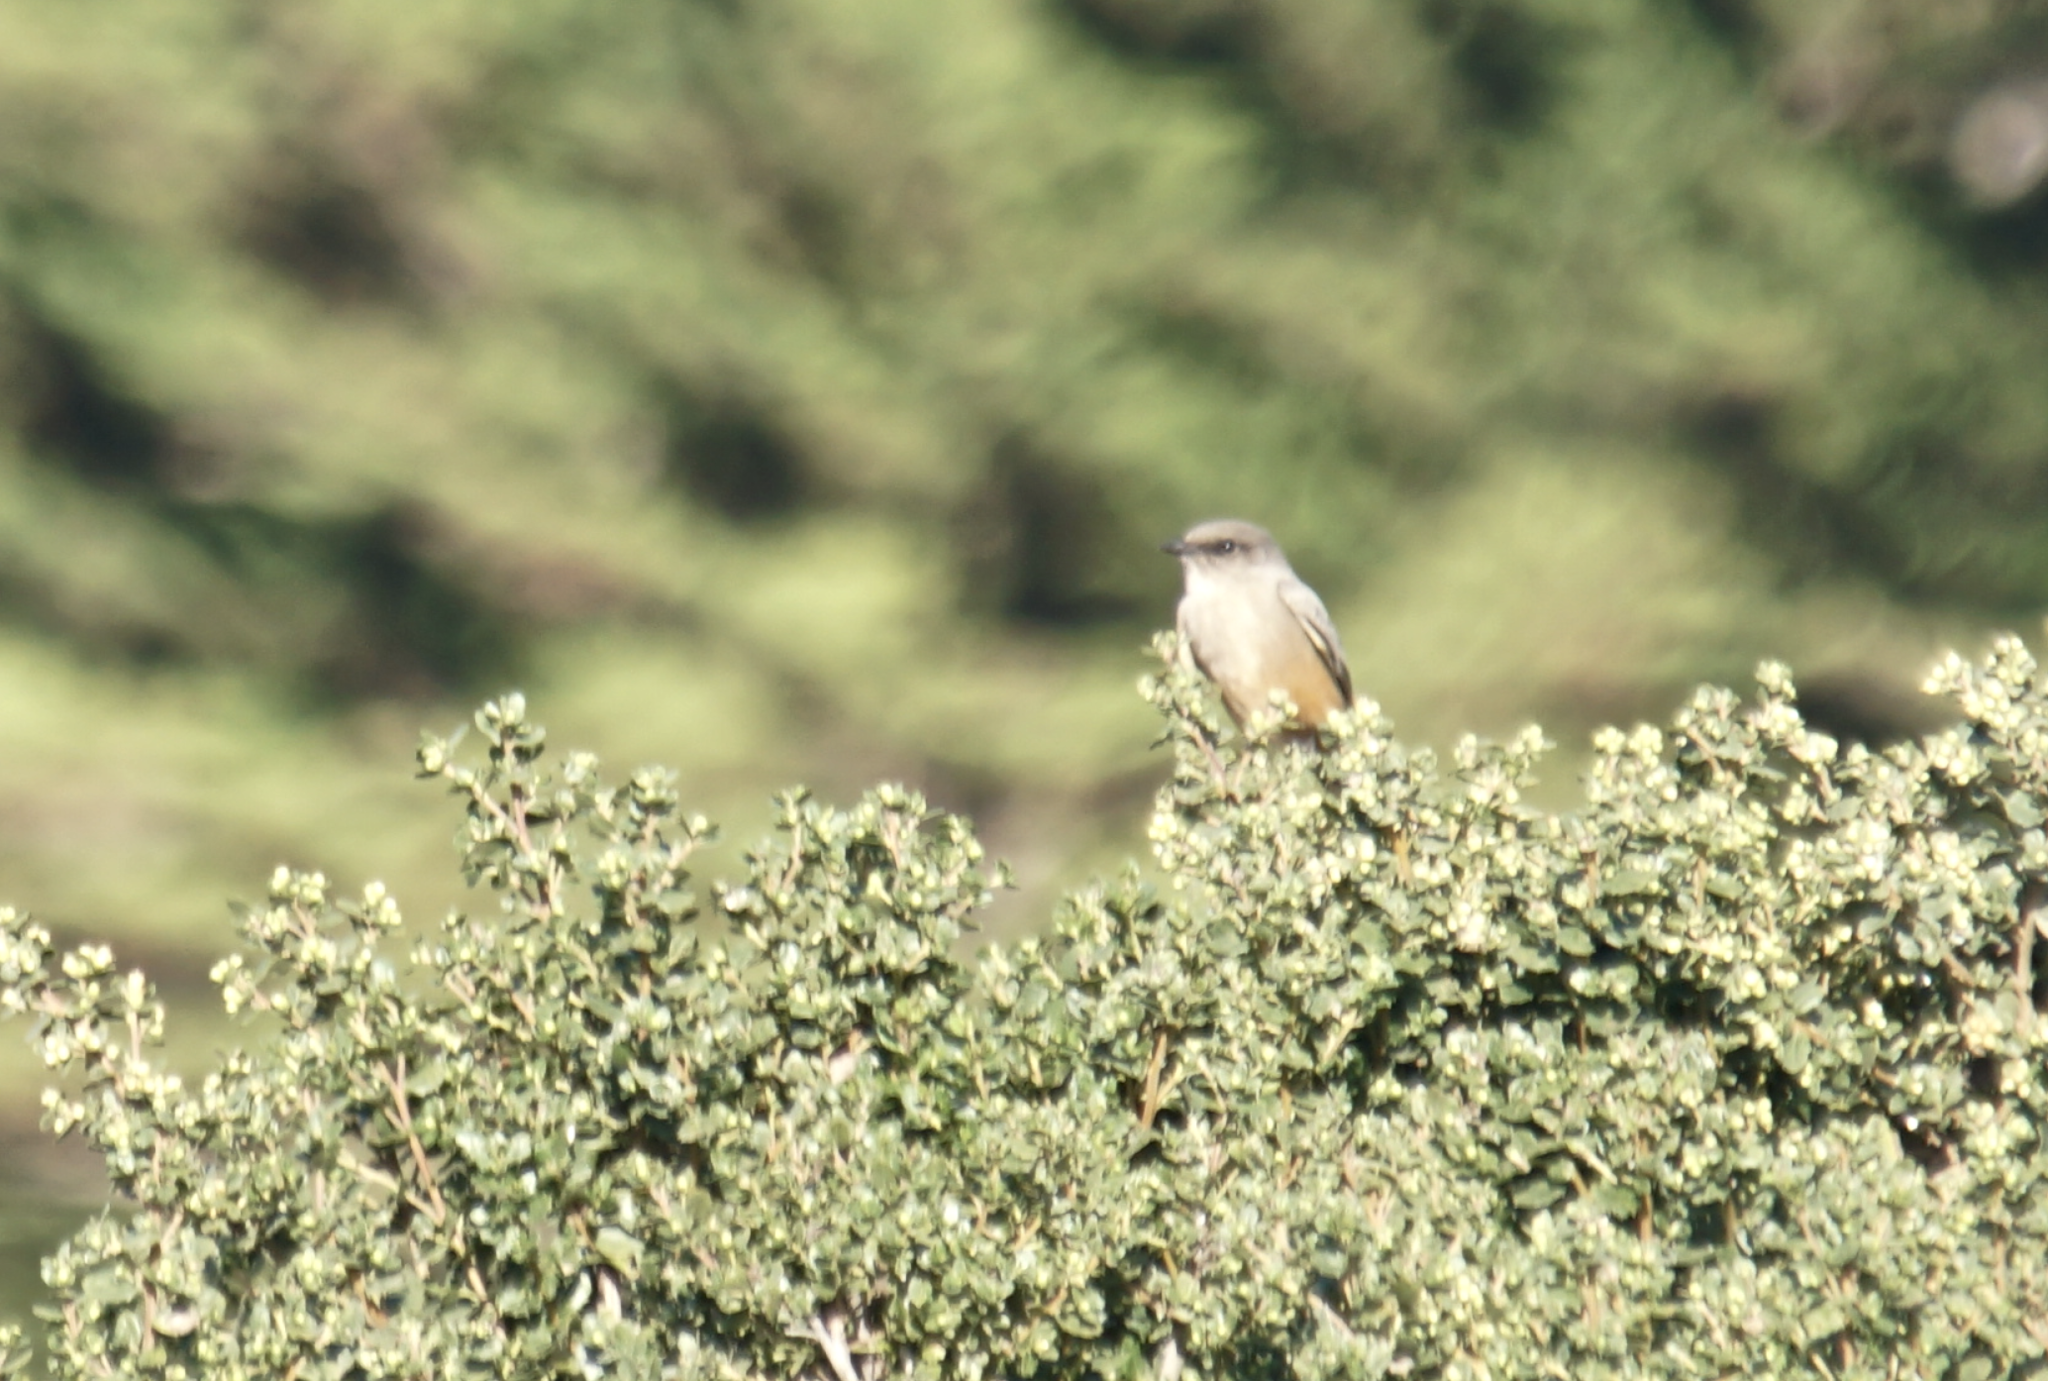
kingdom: Animalia
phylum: Chordata
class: Aves
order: Passeriformes
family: Tyrannidae
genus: Sayornis
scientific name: Sayornis saya
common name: Say's phoebe
